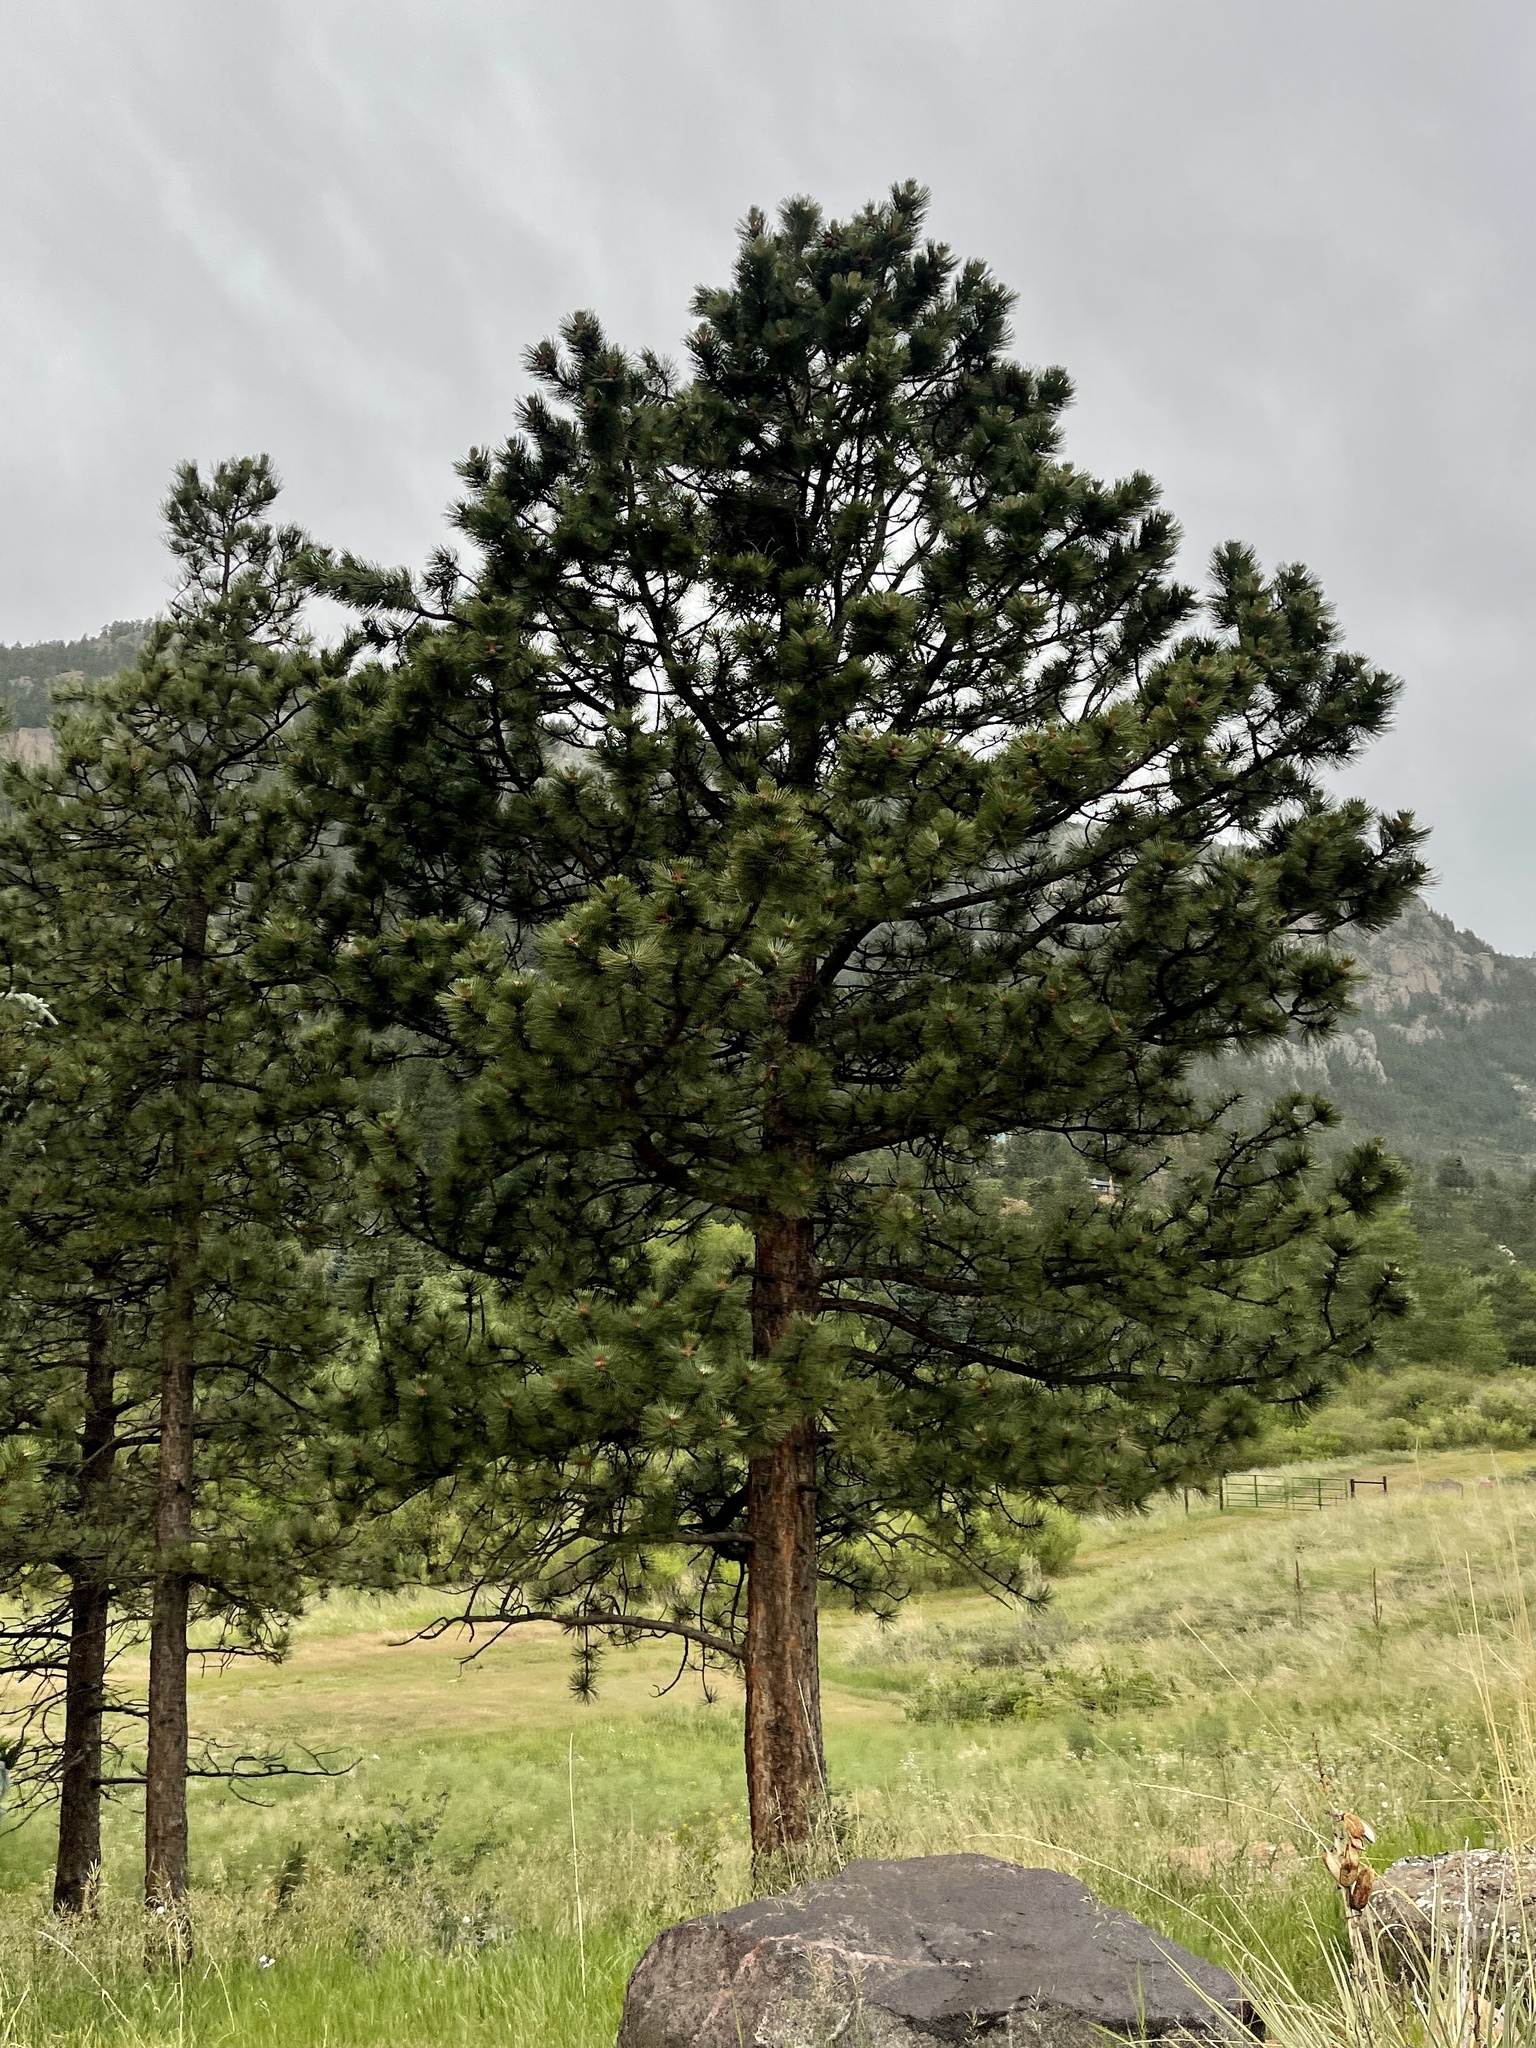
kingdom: Plantae
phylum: Tracheophyta
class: Pinopsida
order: Pinales
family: Pinaceae
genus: Pinus
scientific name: Pinus ponderosa
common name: Western yellow-pine
